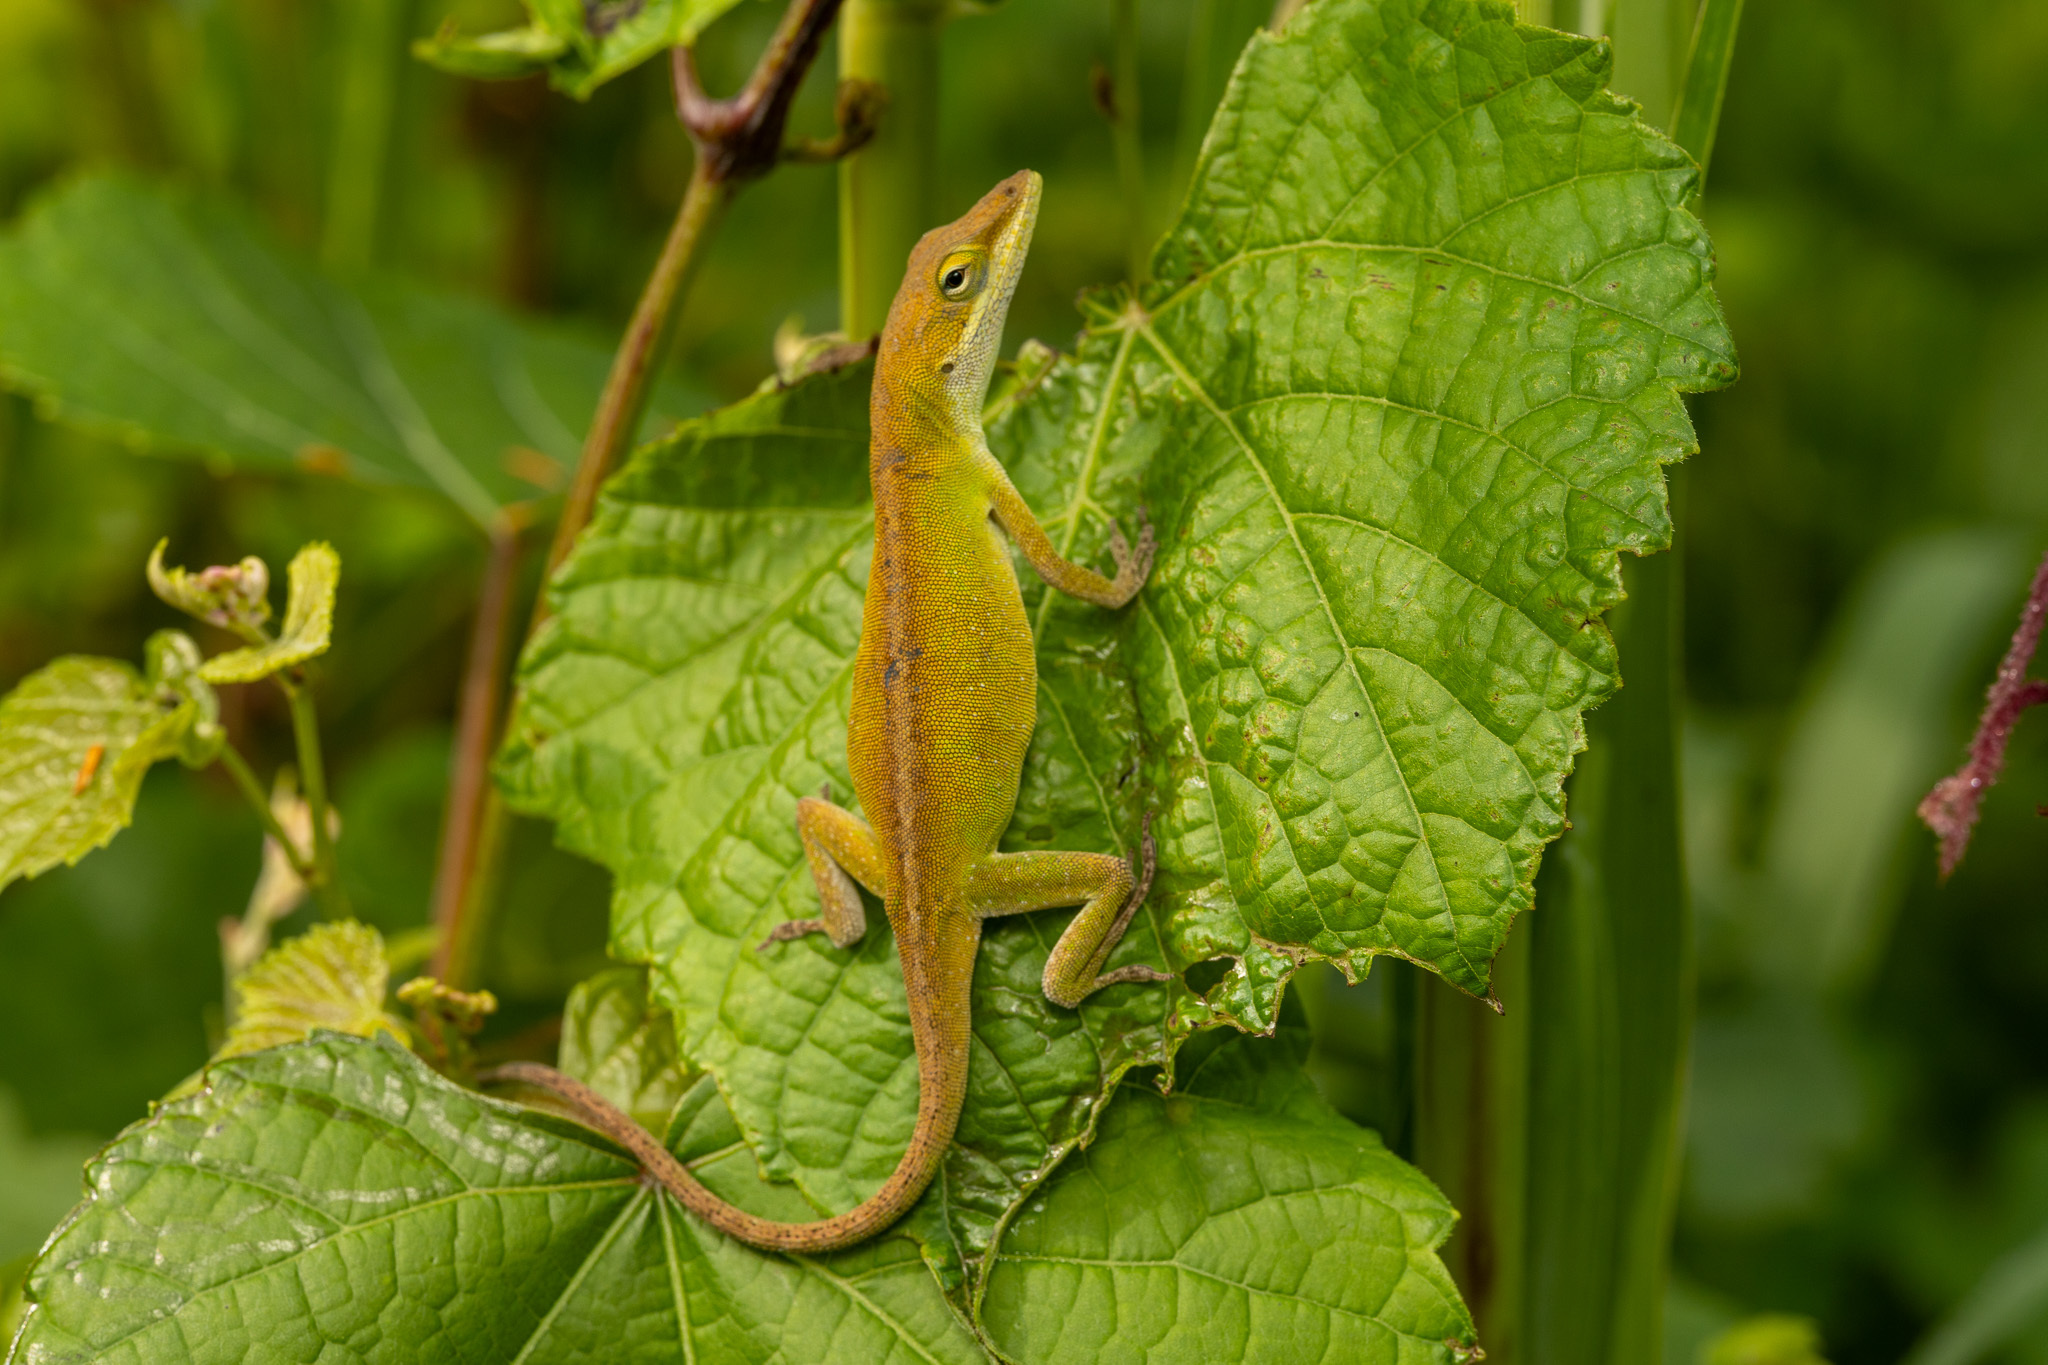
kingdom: Animalia
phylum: Chordata
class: Squamata
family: Dactyloidae
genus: Anolis
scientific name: Anolis carolinensis
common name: Green anole
